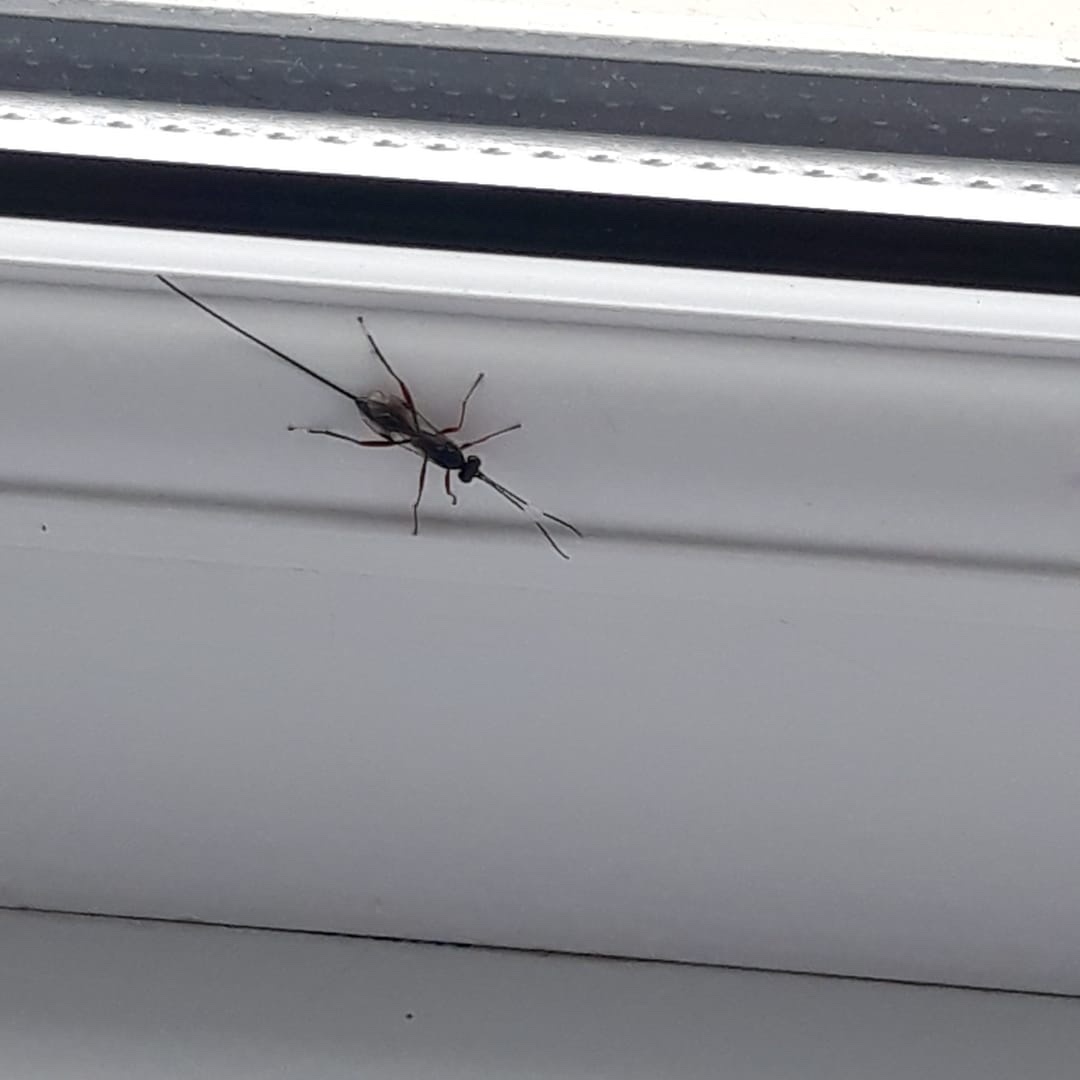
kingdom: Animalia
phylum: Arthropoda
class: Insecta
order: Hymenoptera
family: Ichneumonidae
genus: Stenarella
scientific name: Stenarella domator
